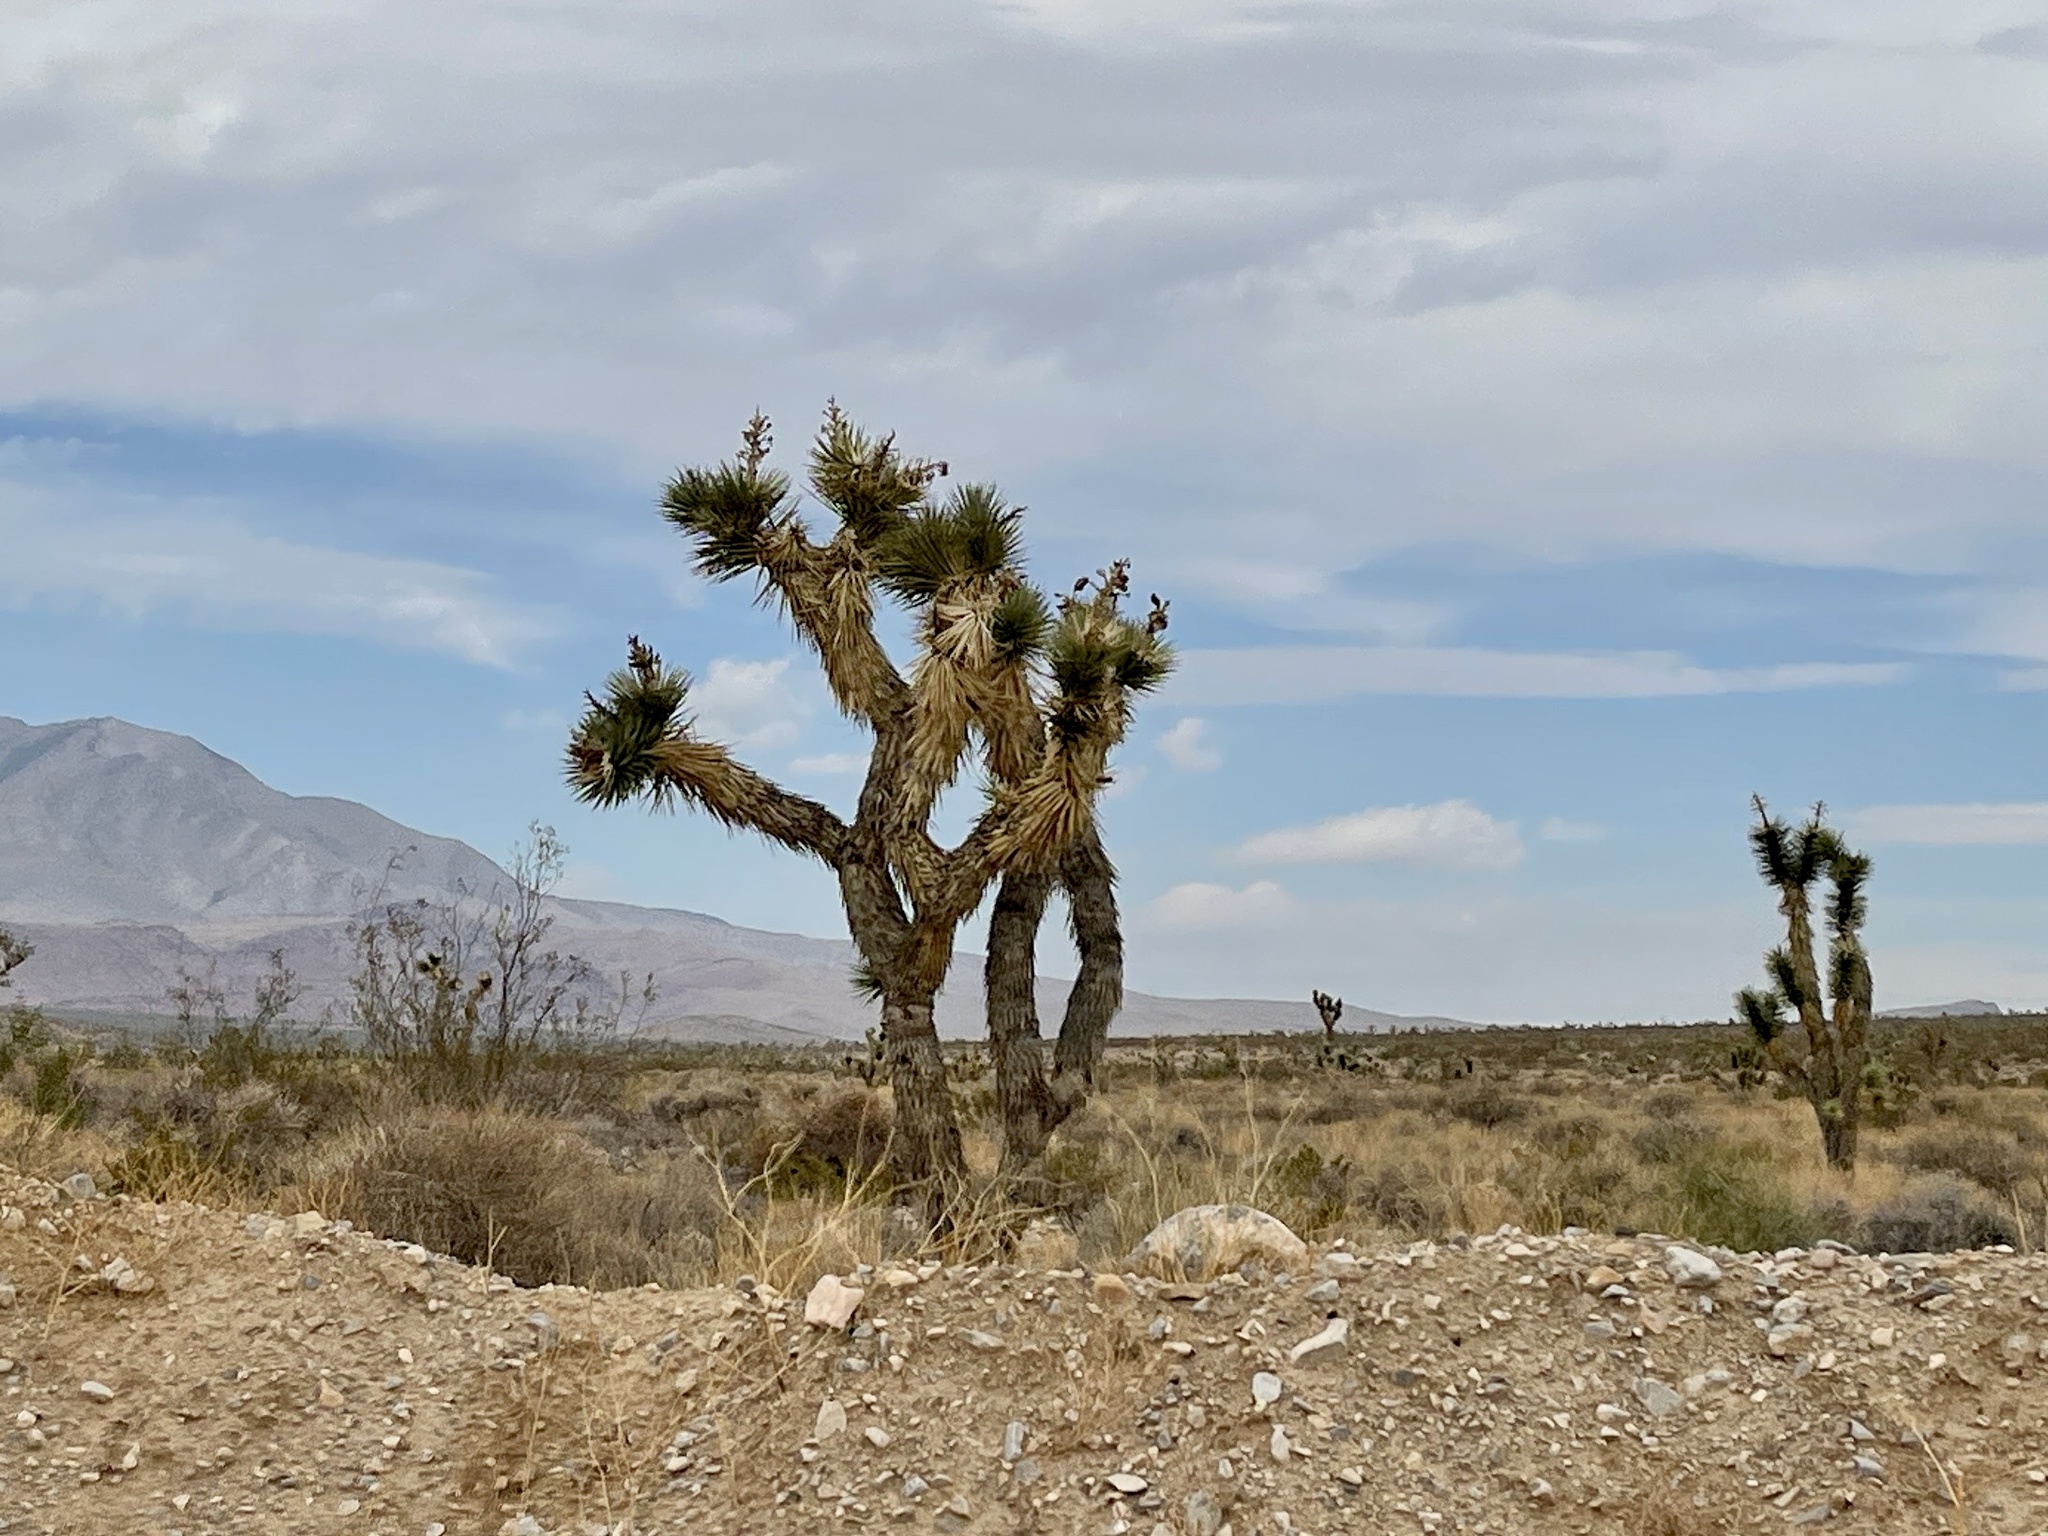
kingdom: Plantae
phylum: Tracheophyta
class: Liliopsida
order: Asparagales
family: Asparagaceae
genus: Yucca
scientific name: Yucca brevifolia
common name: Joshua tree
